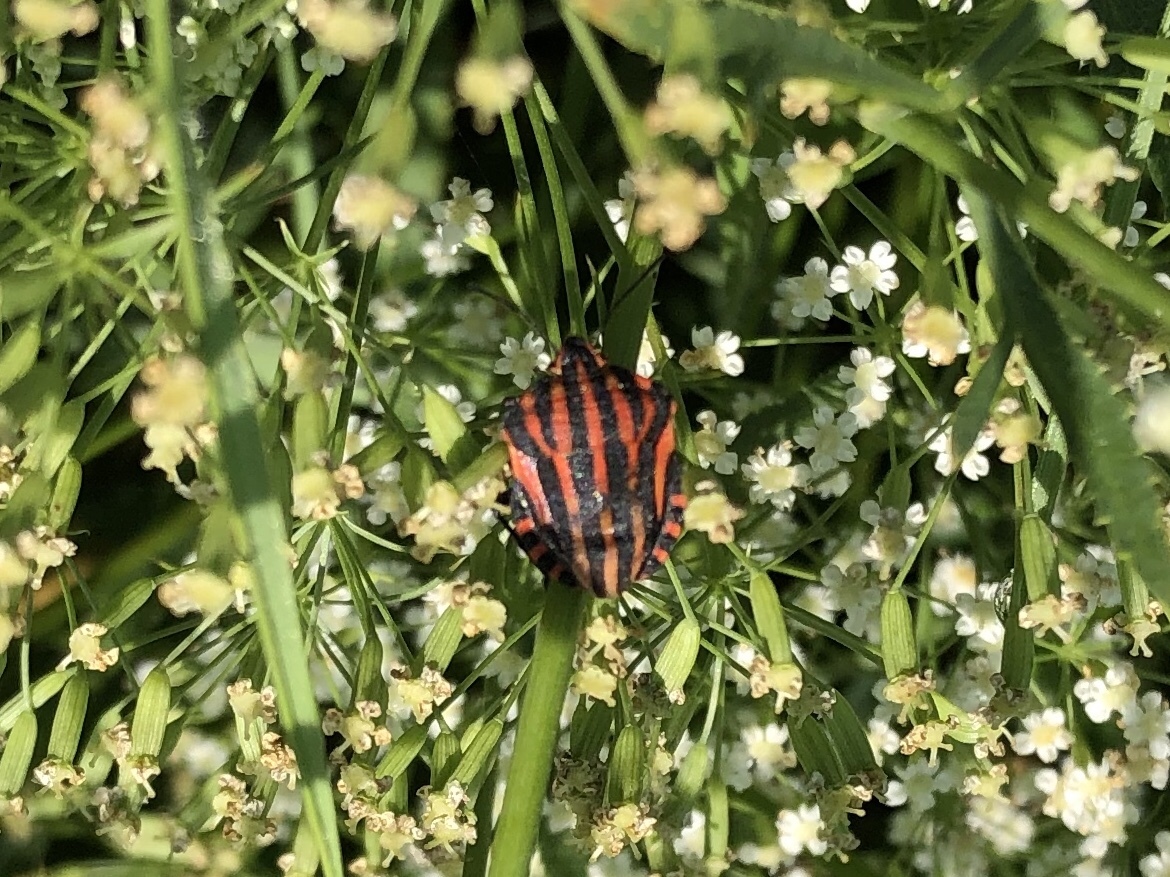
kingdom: Animalia
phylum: Arthropoda
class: Insecta
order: Hemiptera
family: Pentatomidae
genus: Graphosoma
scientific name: Graphosoma italicum
